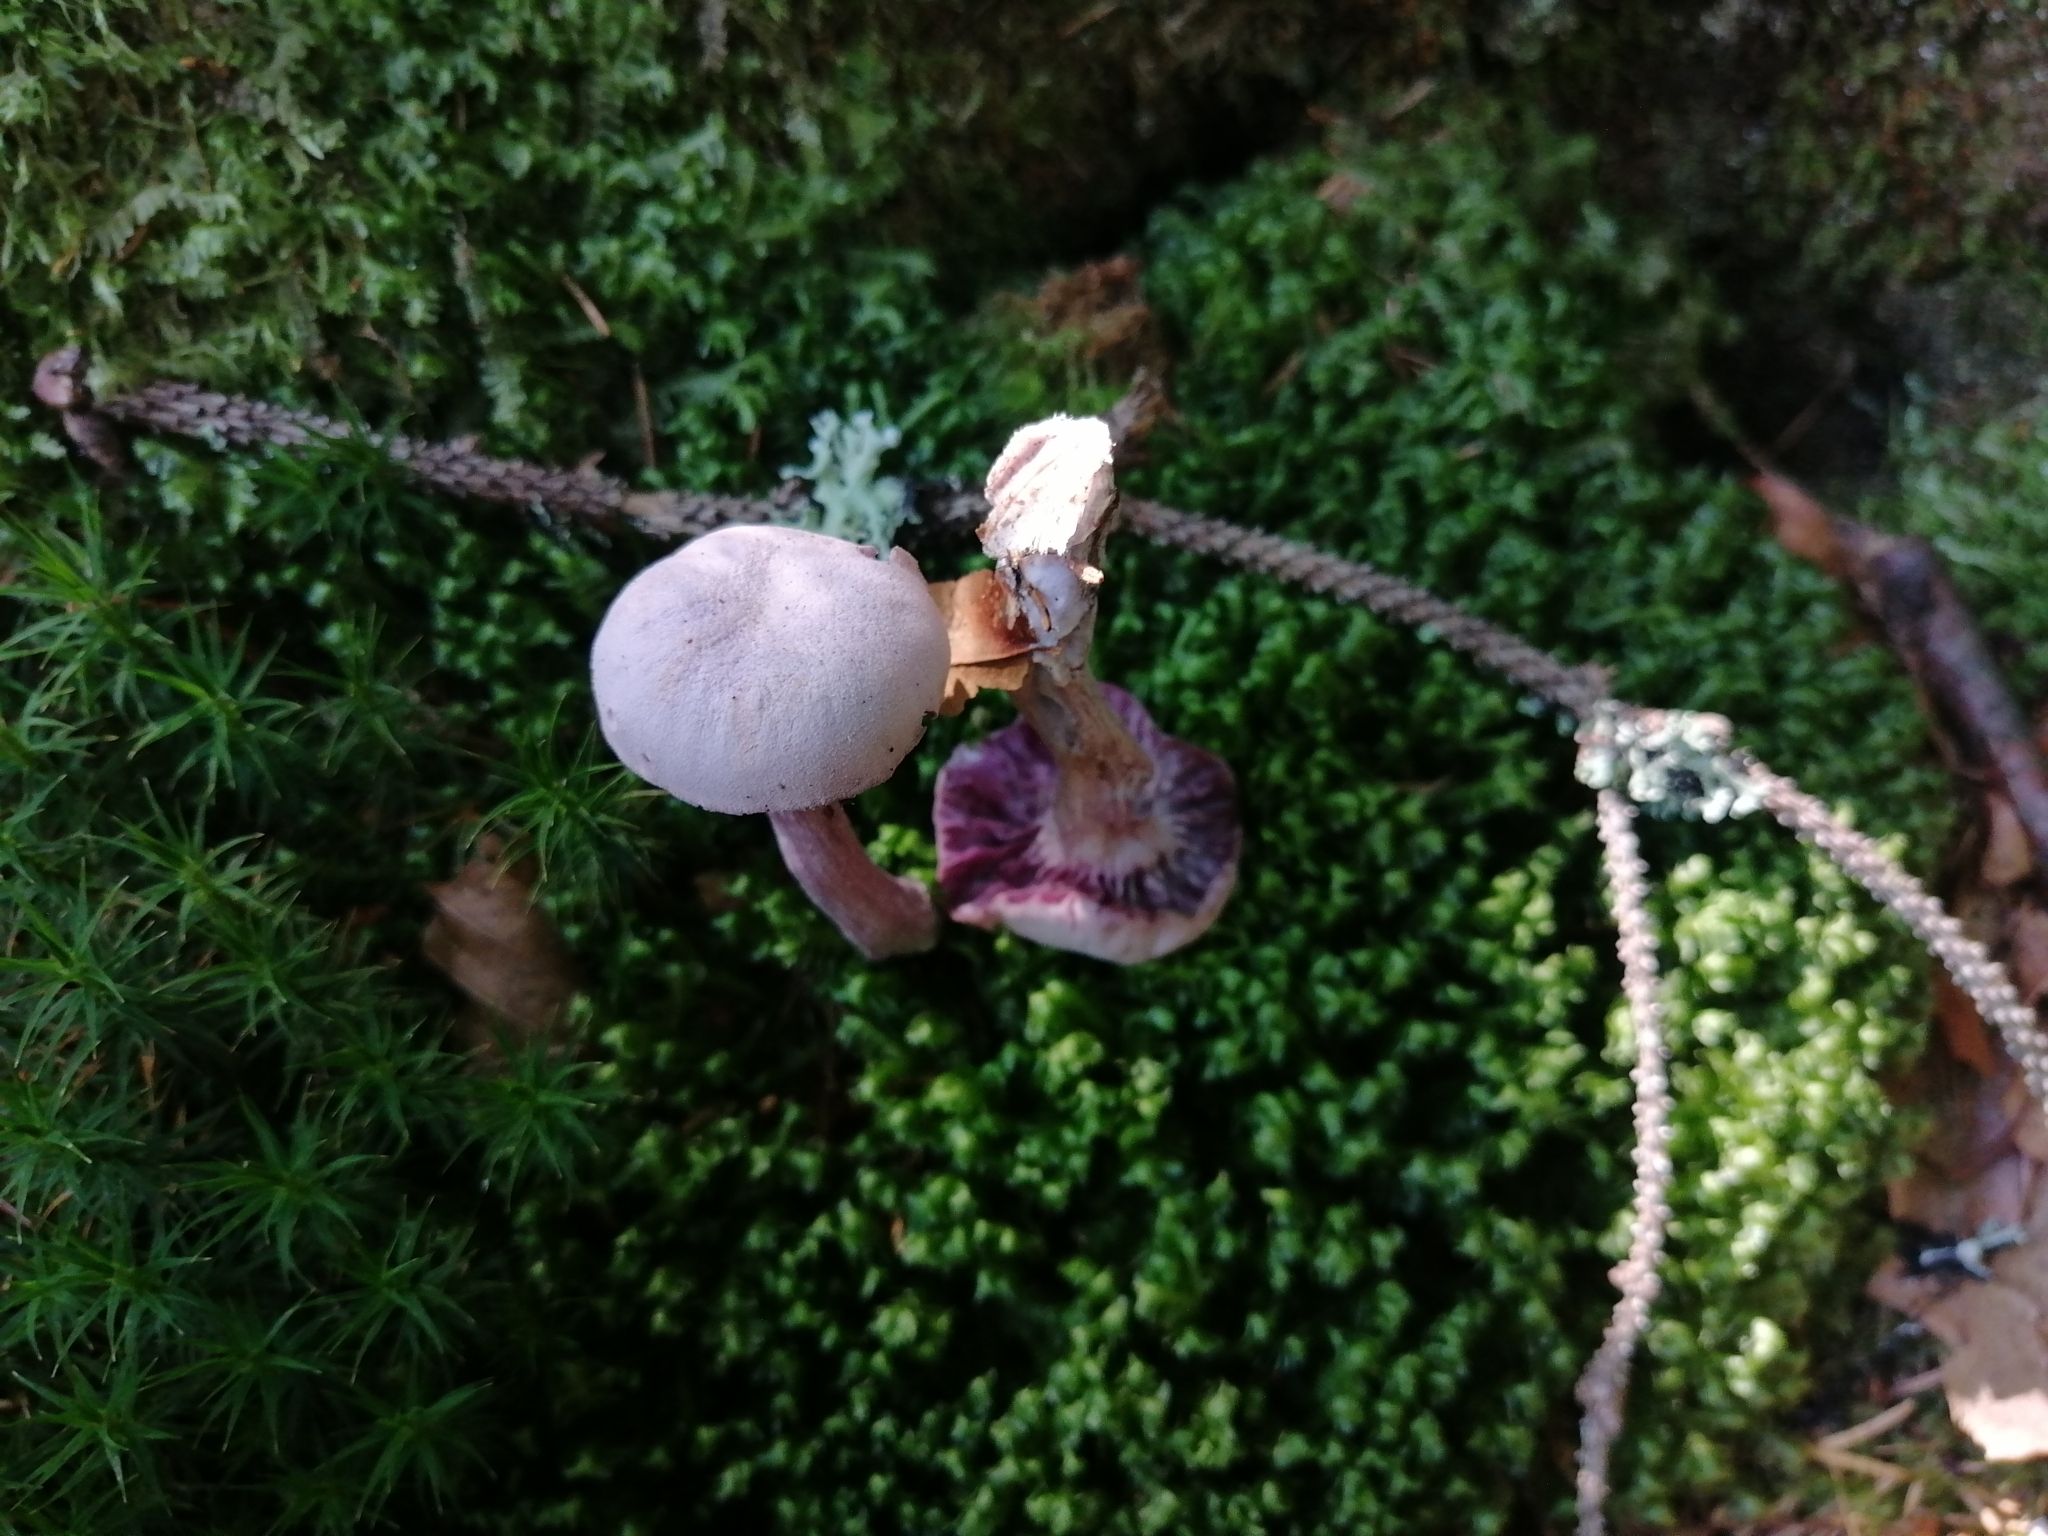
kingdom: Fungi
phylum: Basidiomycota
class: Agaricomycetes
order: Agaricales
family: Hydnangiaceae
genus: Laccaria
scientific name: Laccaria amethystina
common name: Amethyst deceiver
